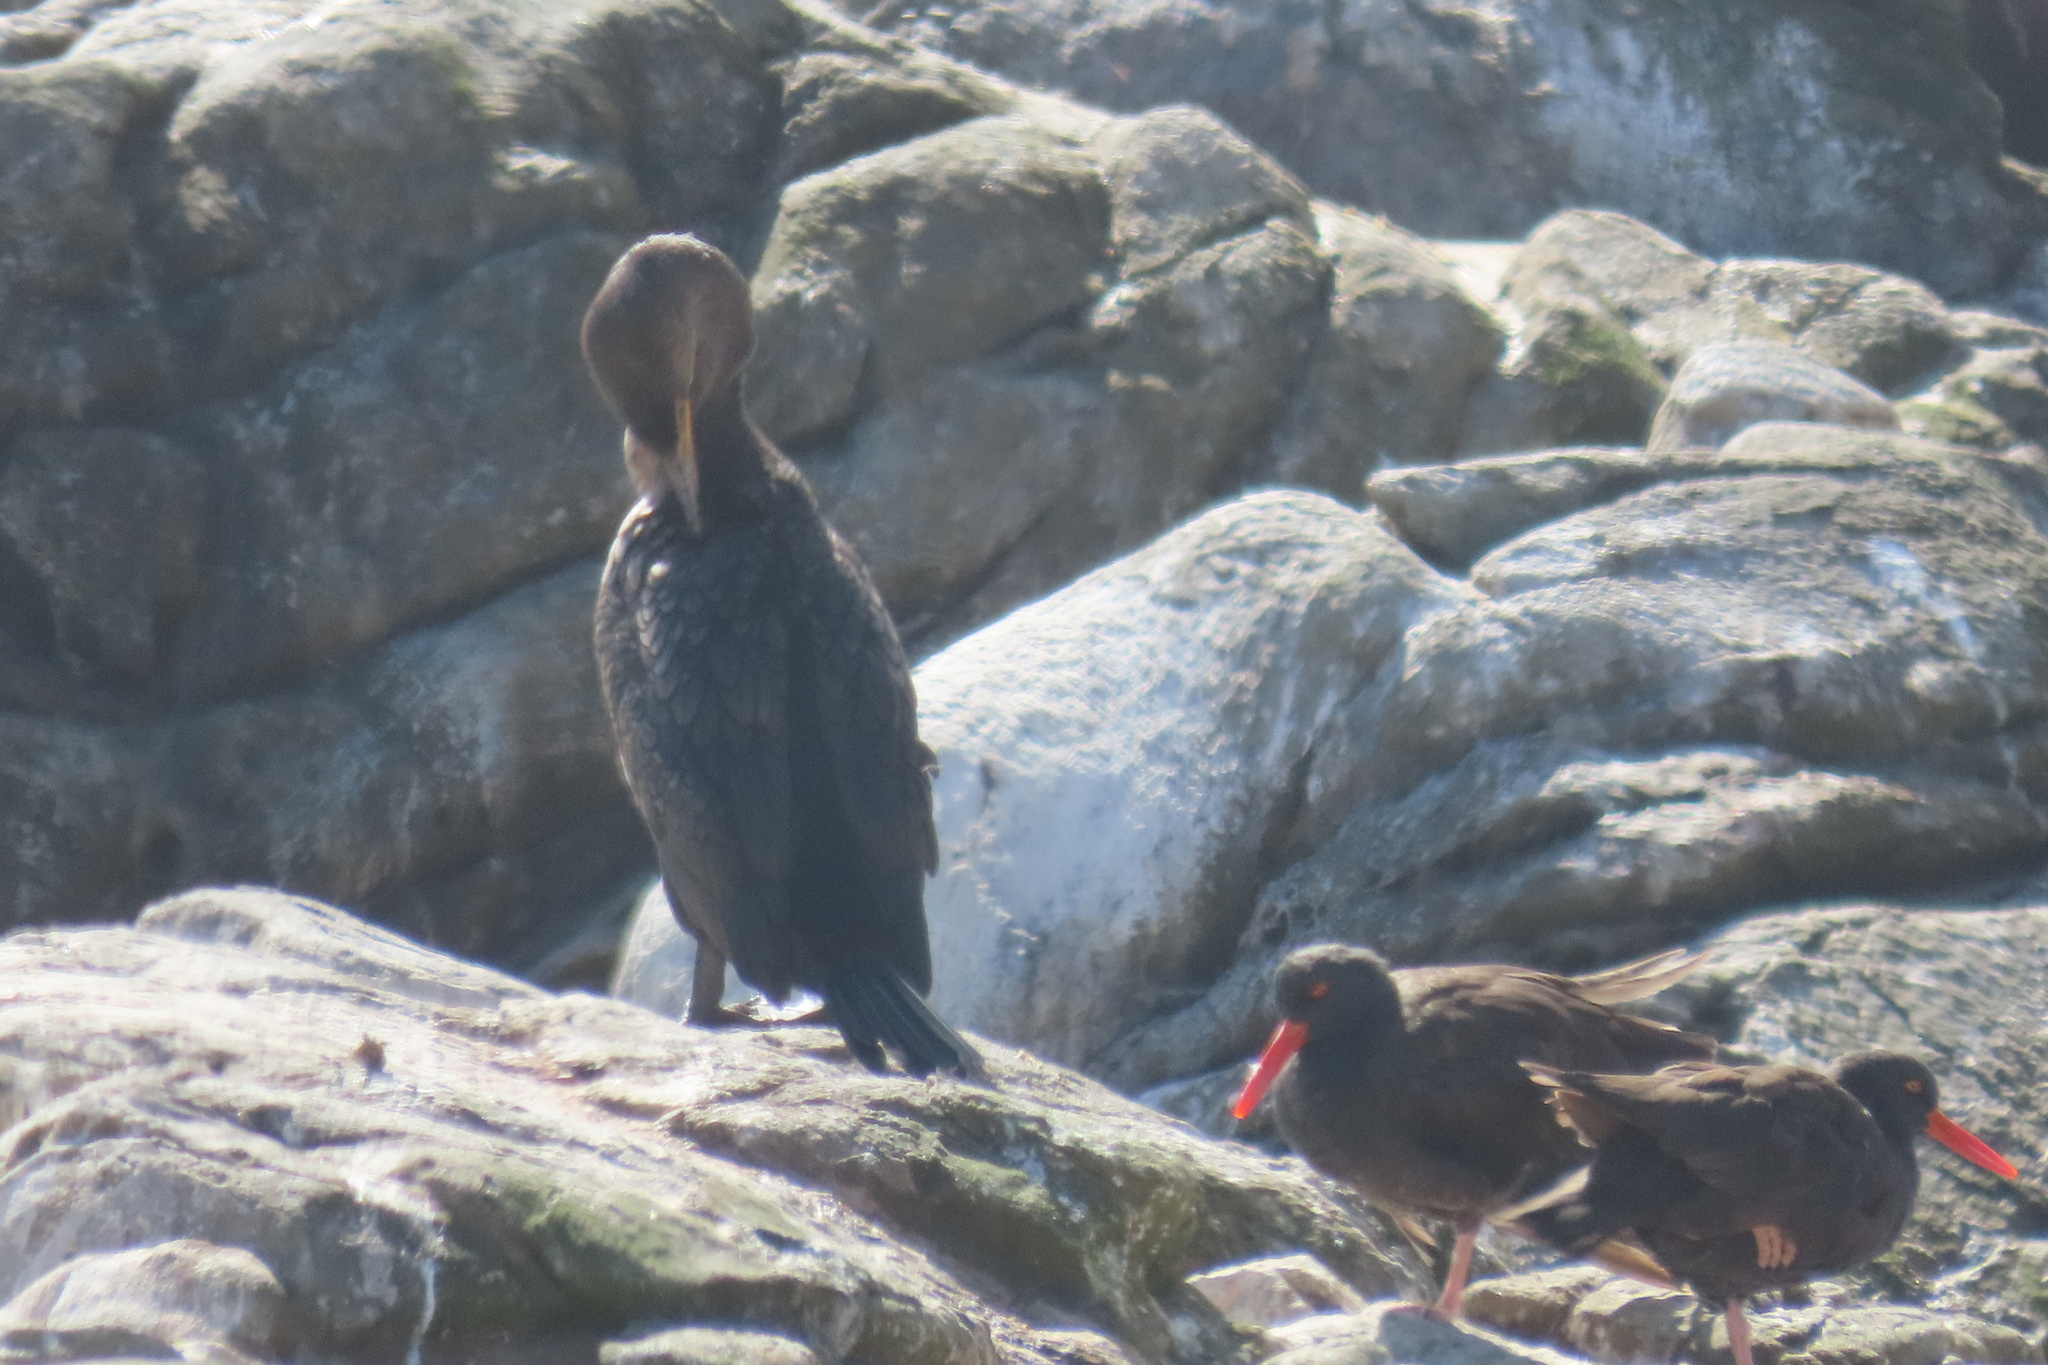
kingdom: Animalia
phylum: Chordata
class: Aves
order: Charadriiformes
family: Haematopodidae
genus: Haematopus
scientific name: Haematopus bachmani
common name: Black oystercatcher
